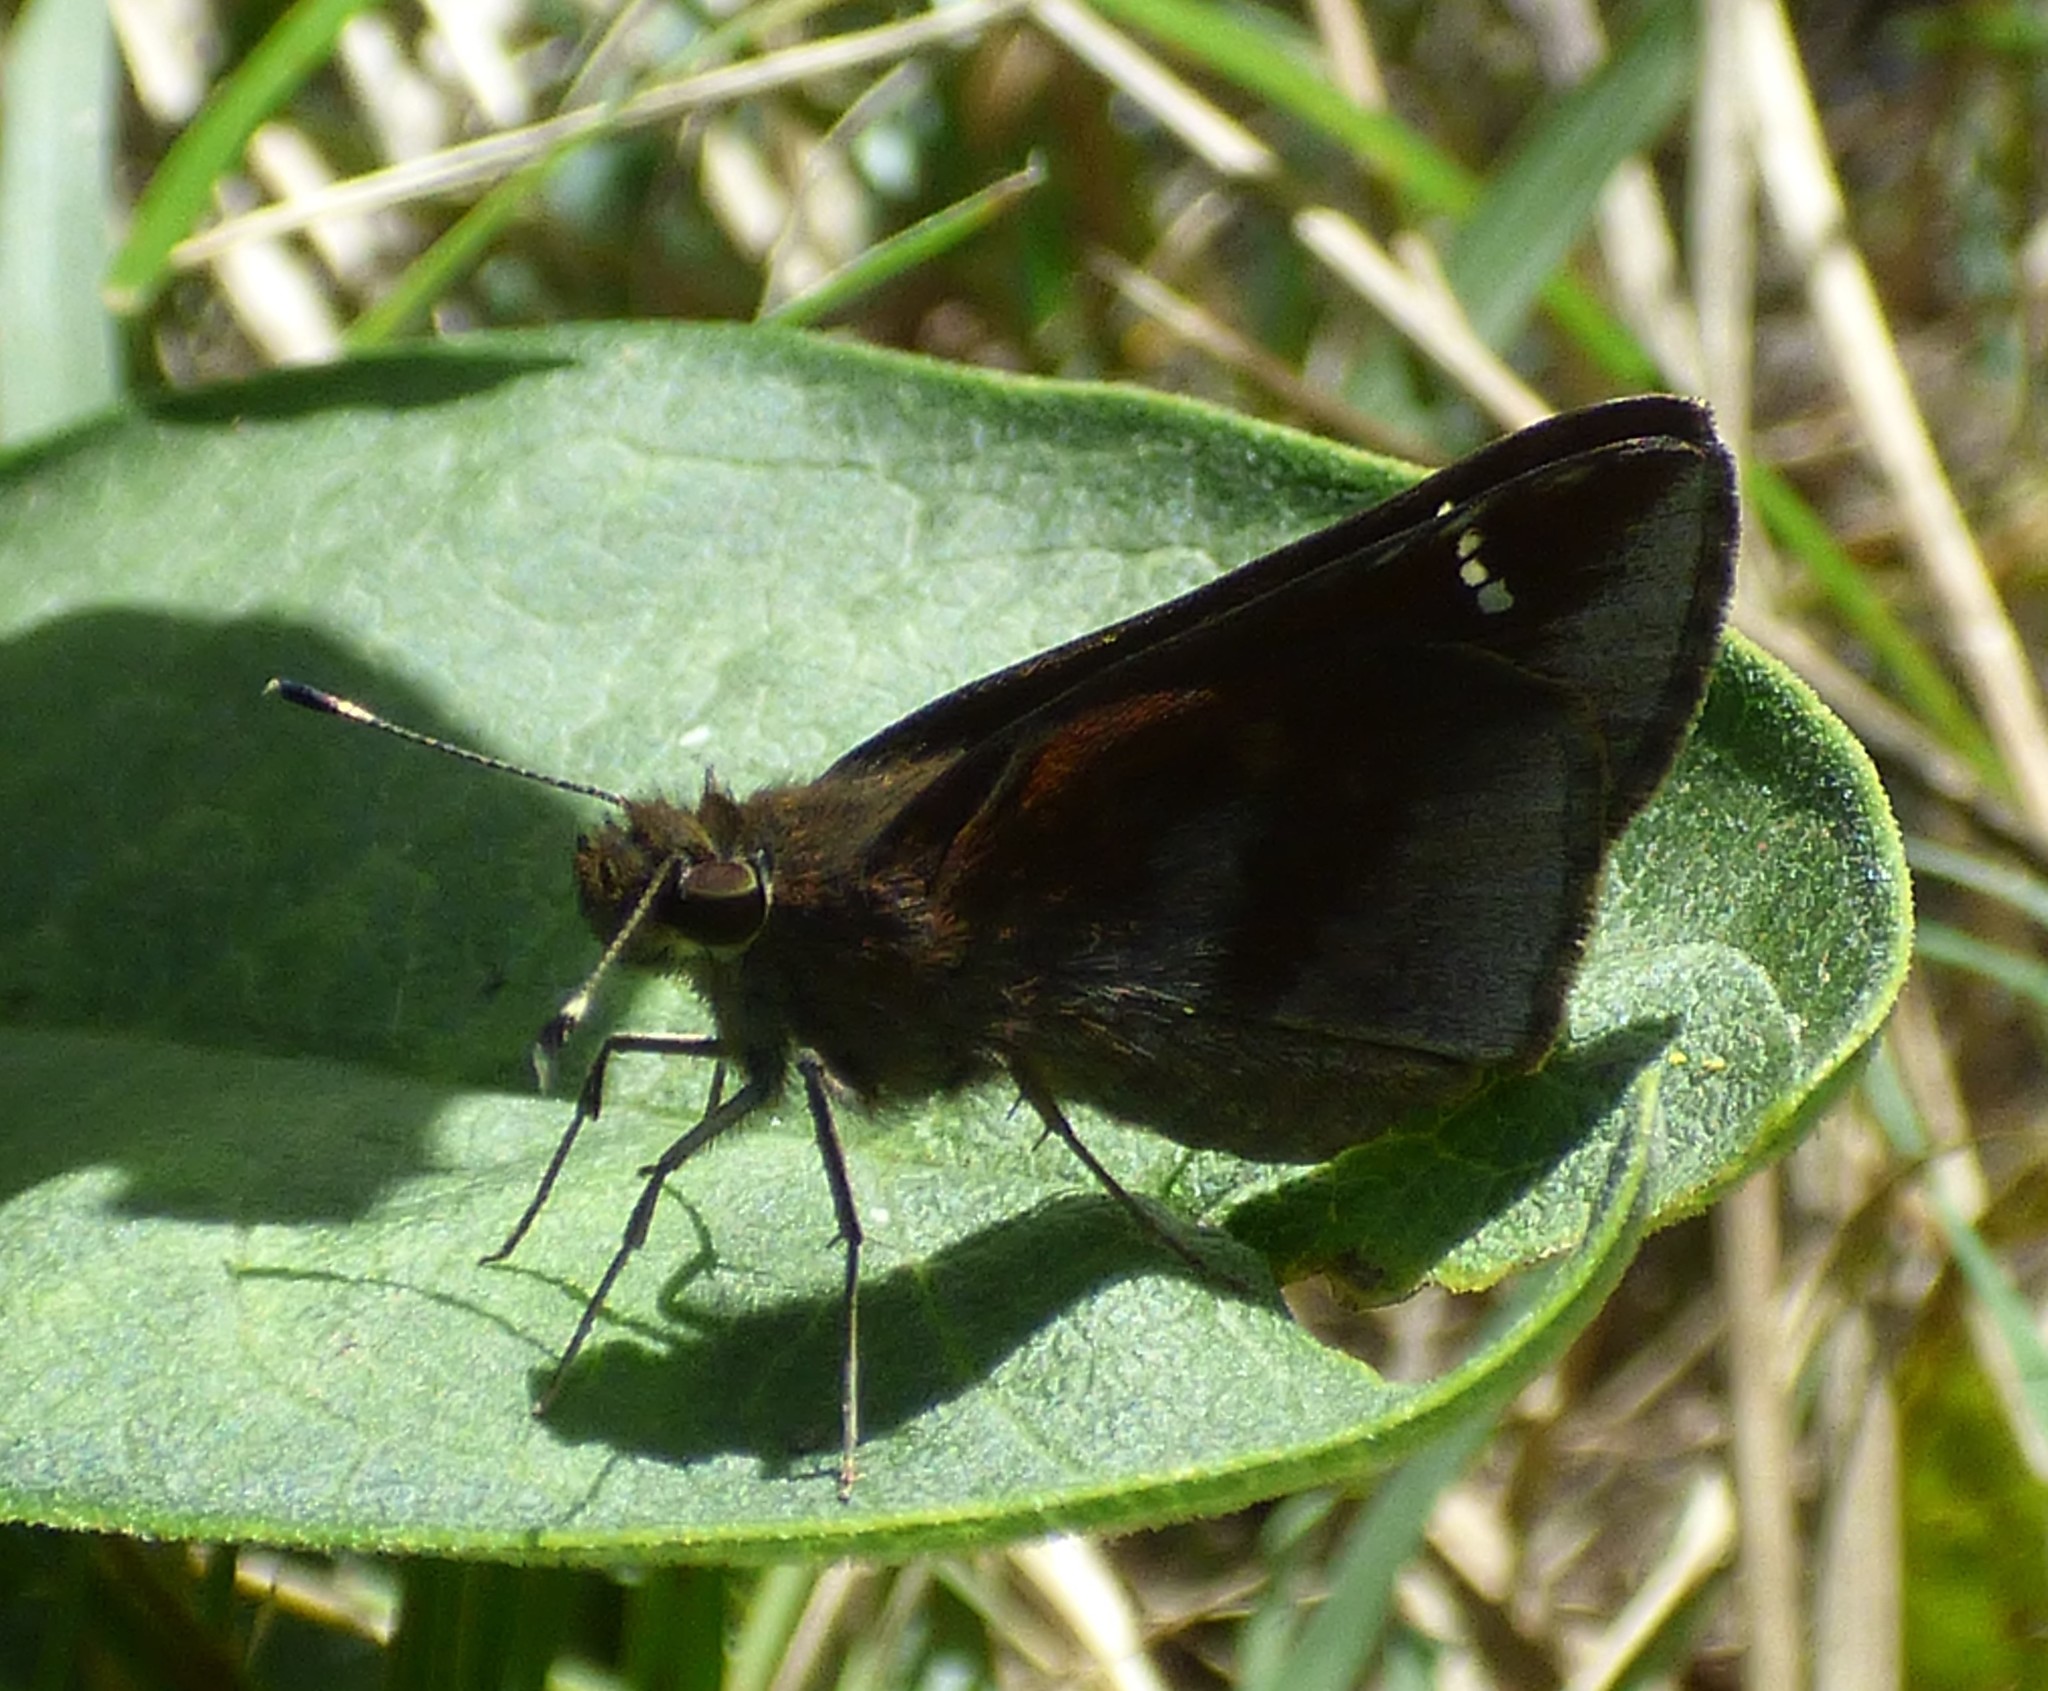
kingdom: Animalia
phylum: Arthropoda
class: Insecta
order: Lepidoptera
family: Hesperiidae
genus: Lerema
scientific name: Lerema accius
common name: Clouded skipper
